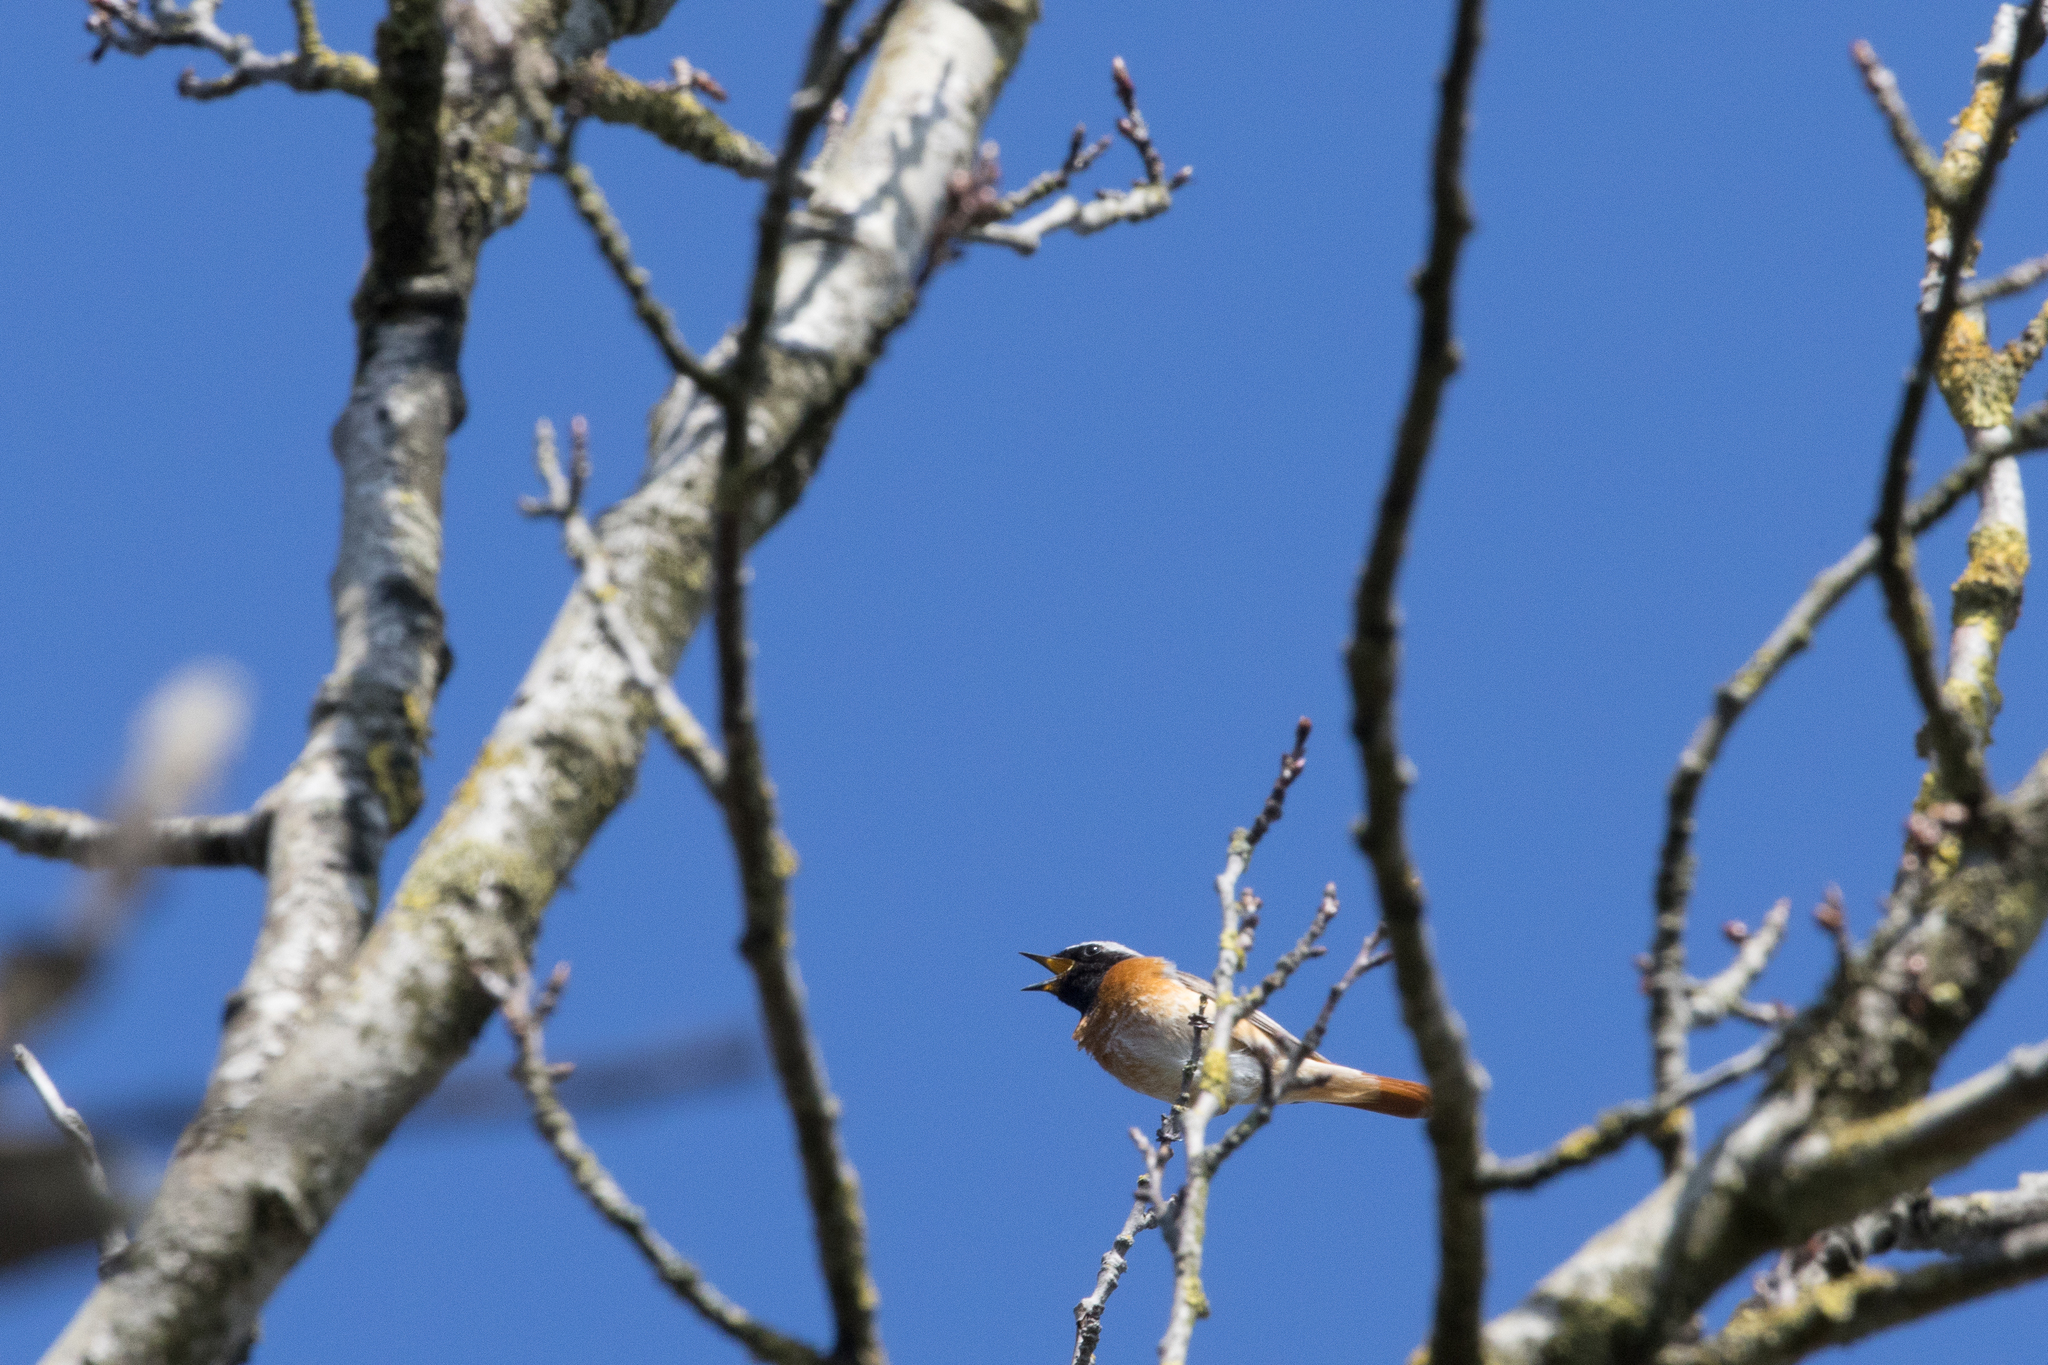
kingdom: Animalia
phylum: Chordata
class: Aves
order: Passeriformes
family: Muscicapidae
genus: Phoenicurus
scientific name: Phoenicurus phoenicurus
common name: Common redstart
